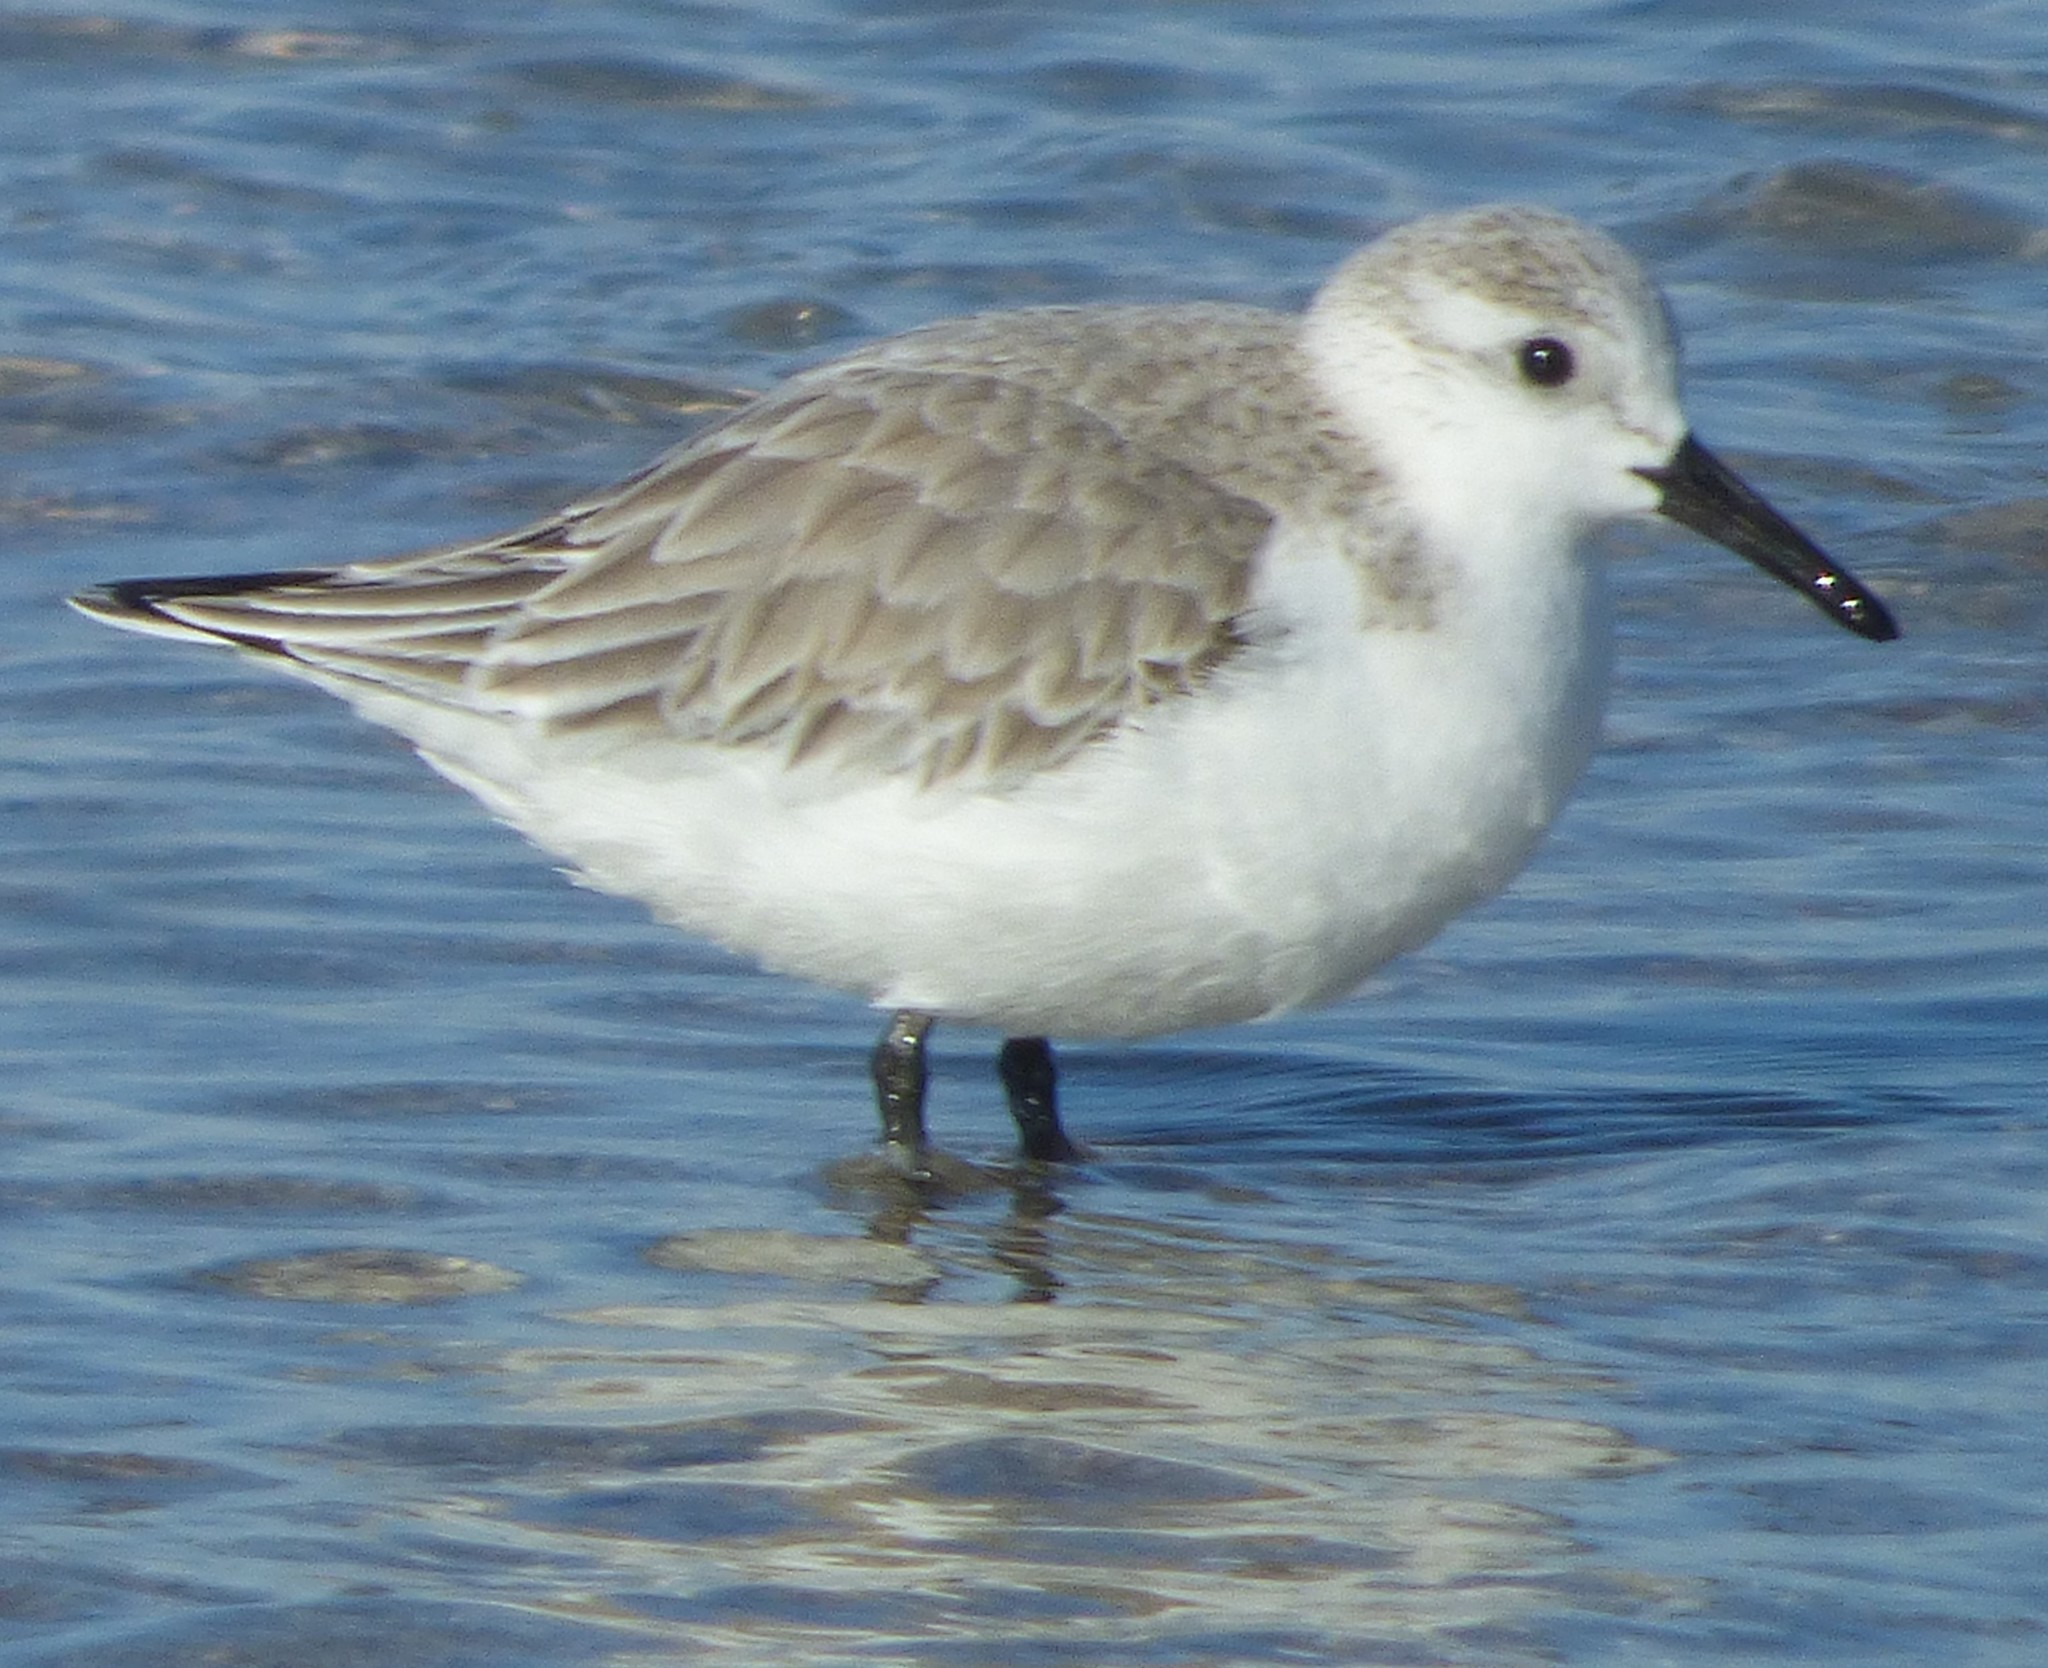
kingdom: Animalia
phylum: Chordata
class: Aves
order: Charadriiformes
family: Scolopacidae
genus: Calidris
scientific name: Calidris alba
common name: Sanderling
